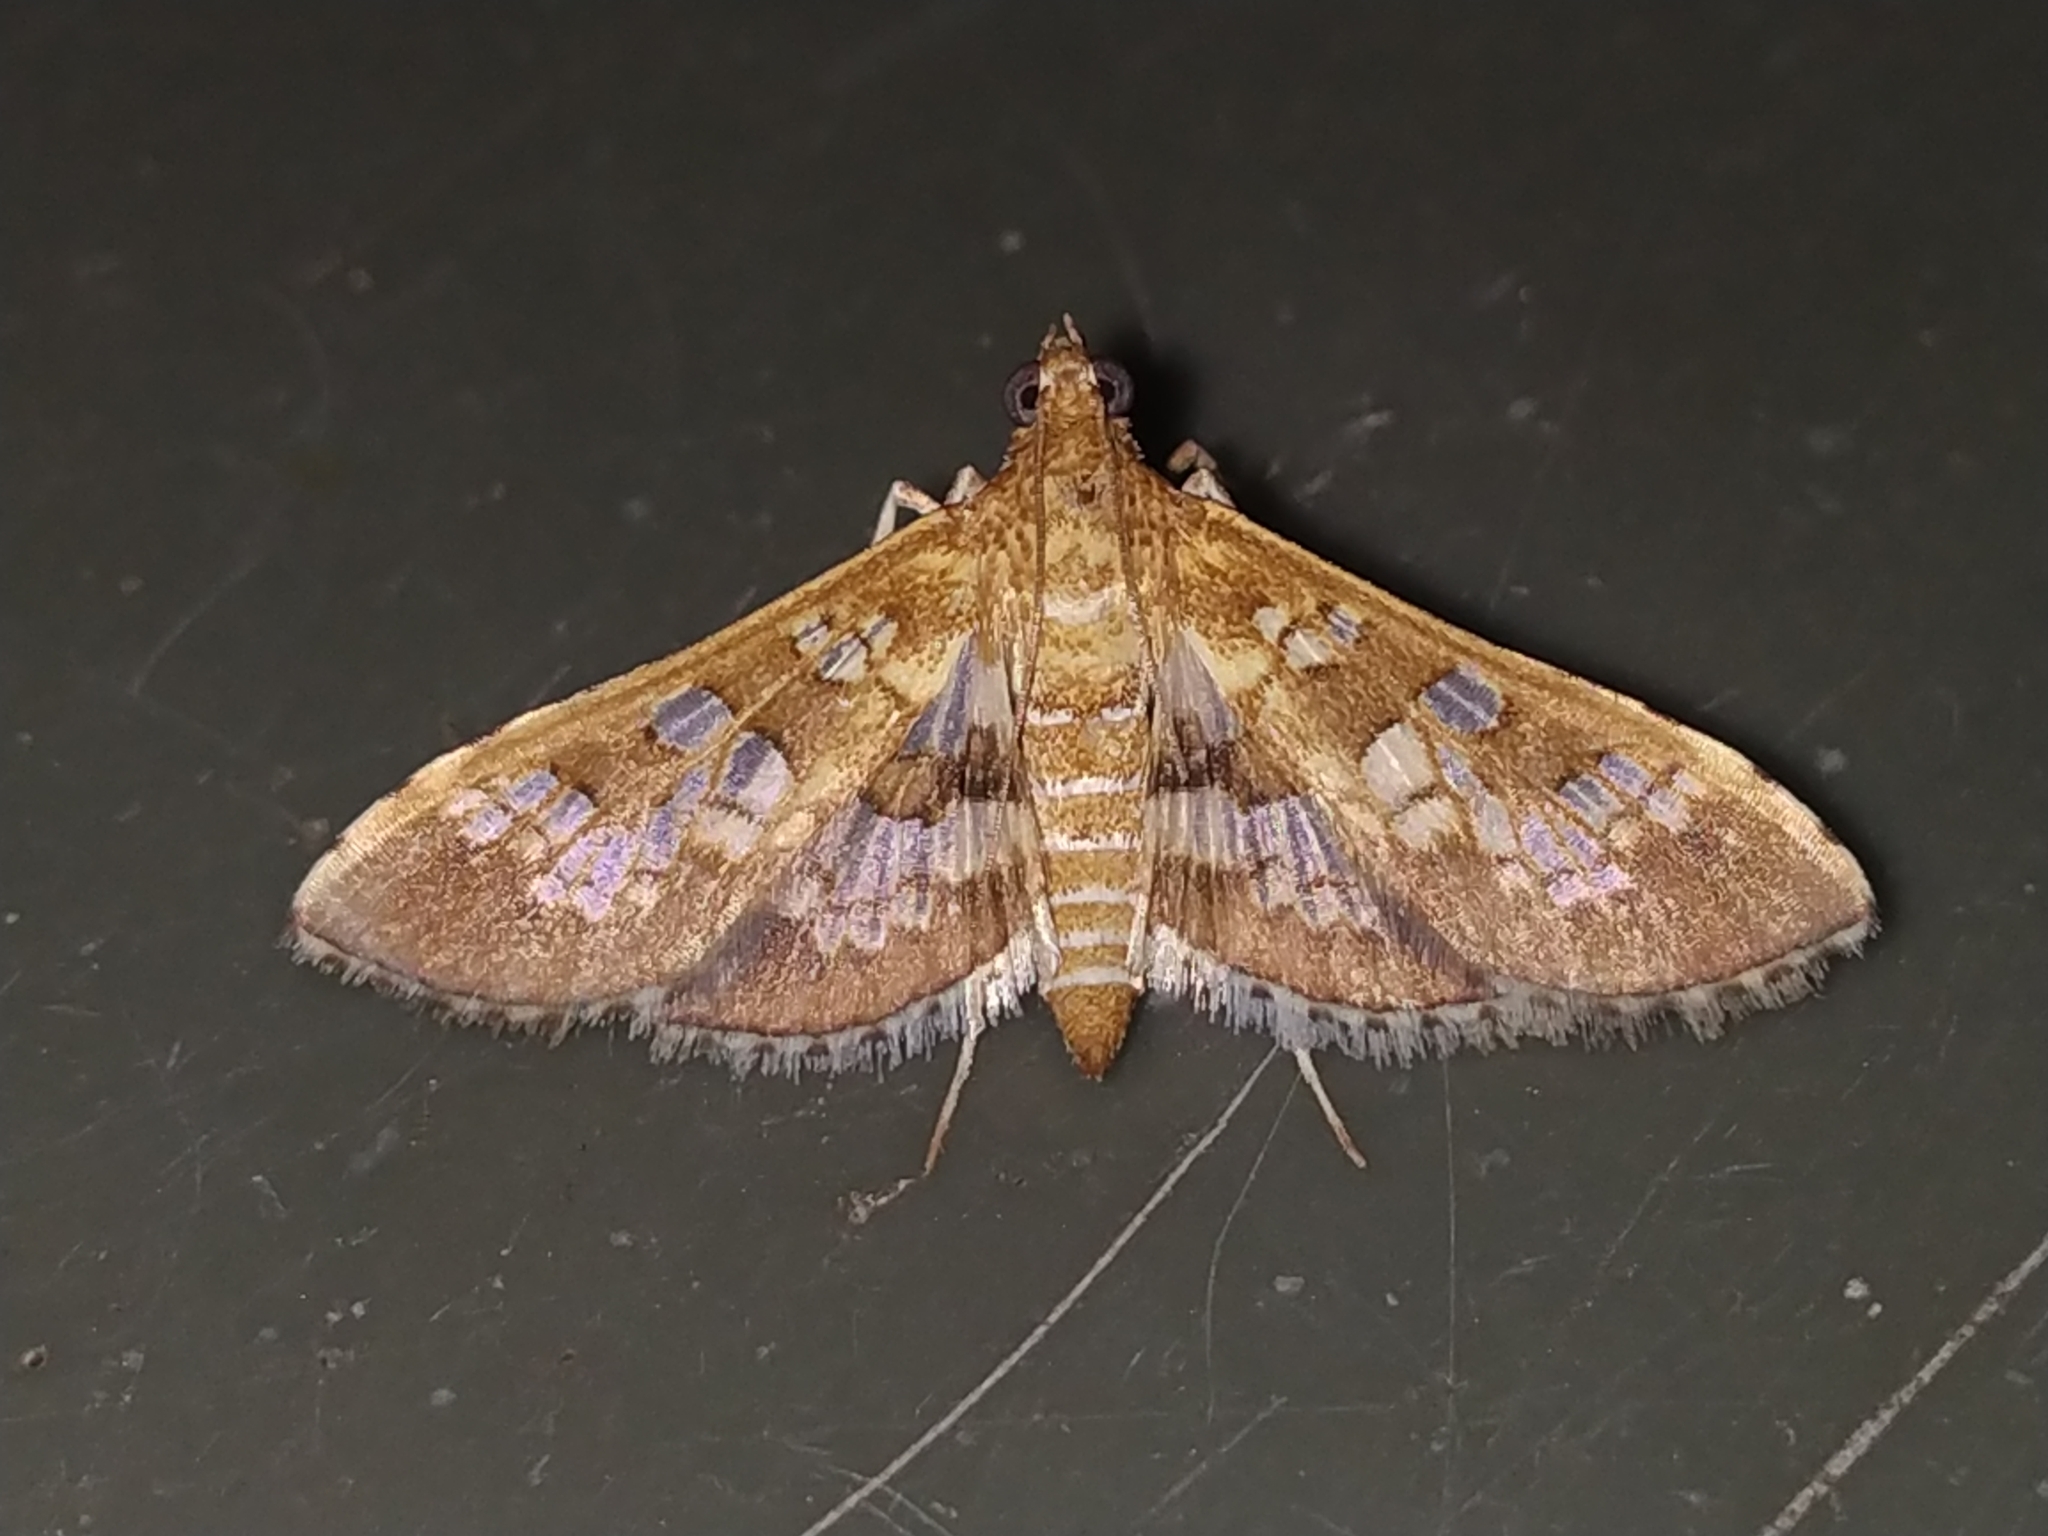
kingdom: Animalia
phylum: Arthropoda
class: Insecta
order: Lepidoptera
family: Crambidae
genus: Sameodes
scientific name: Sameodes cancellalis
